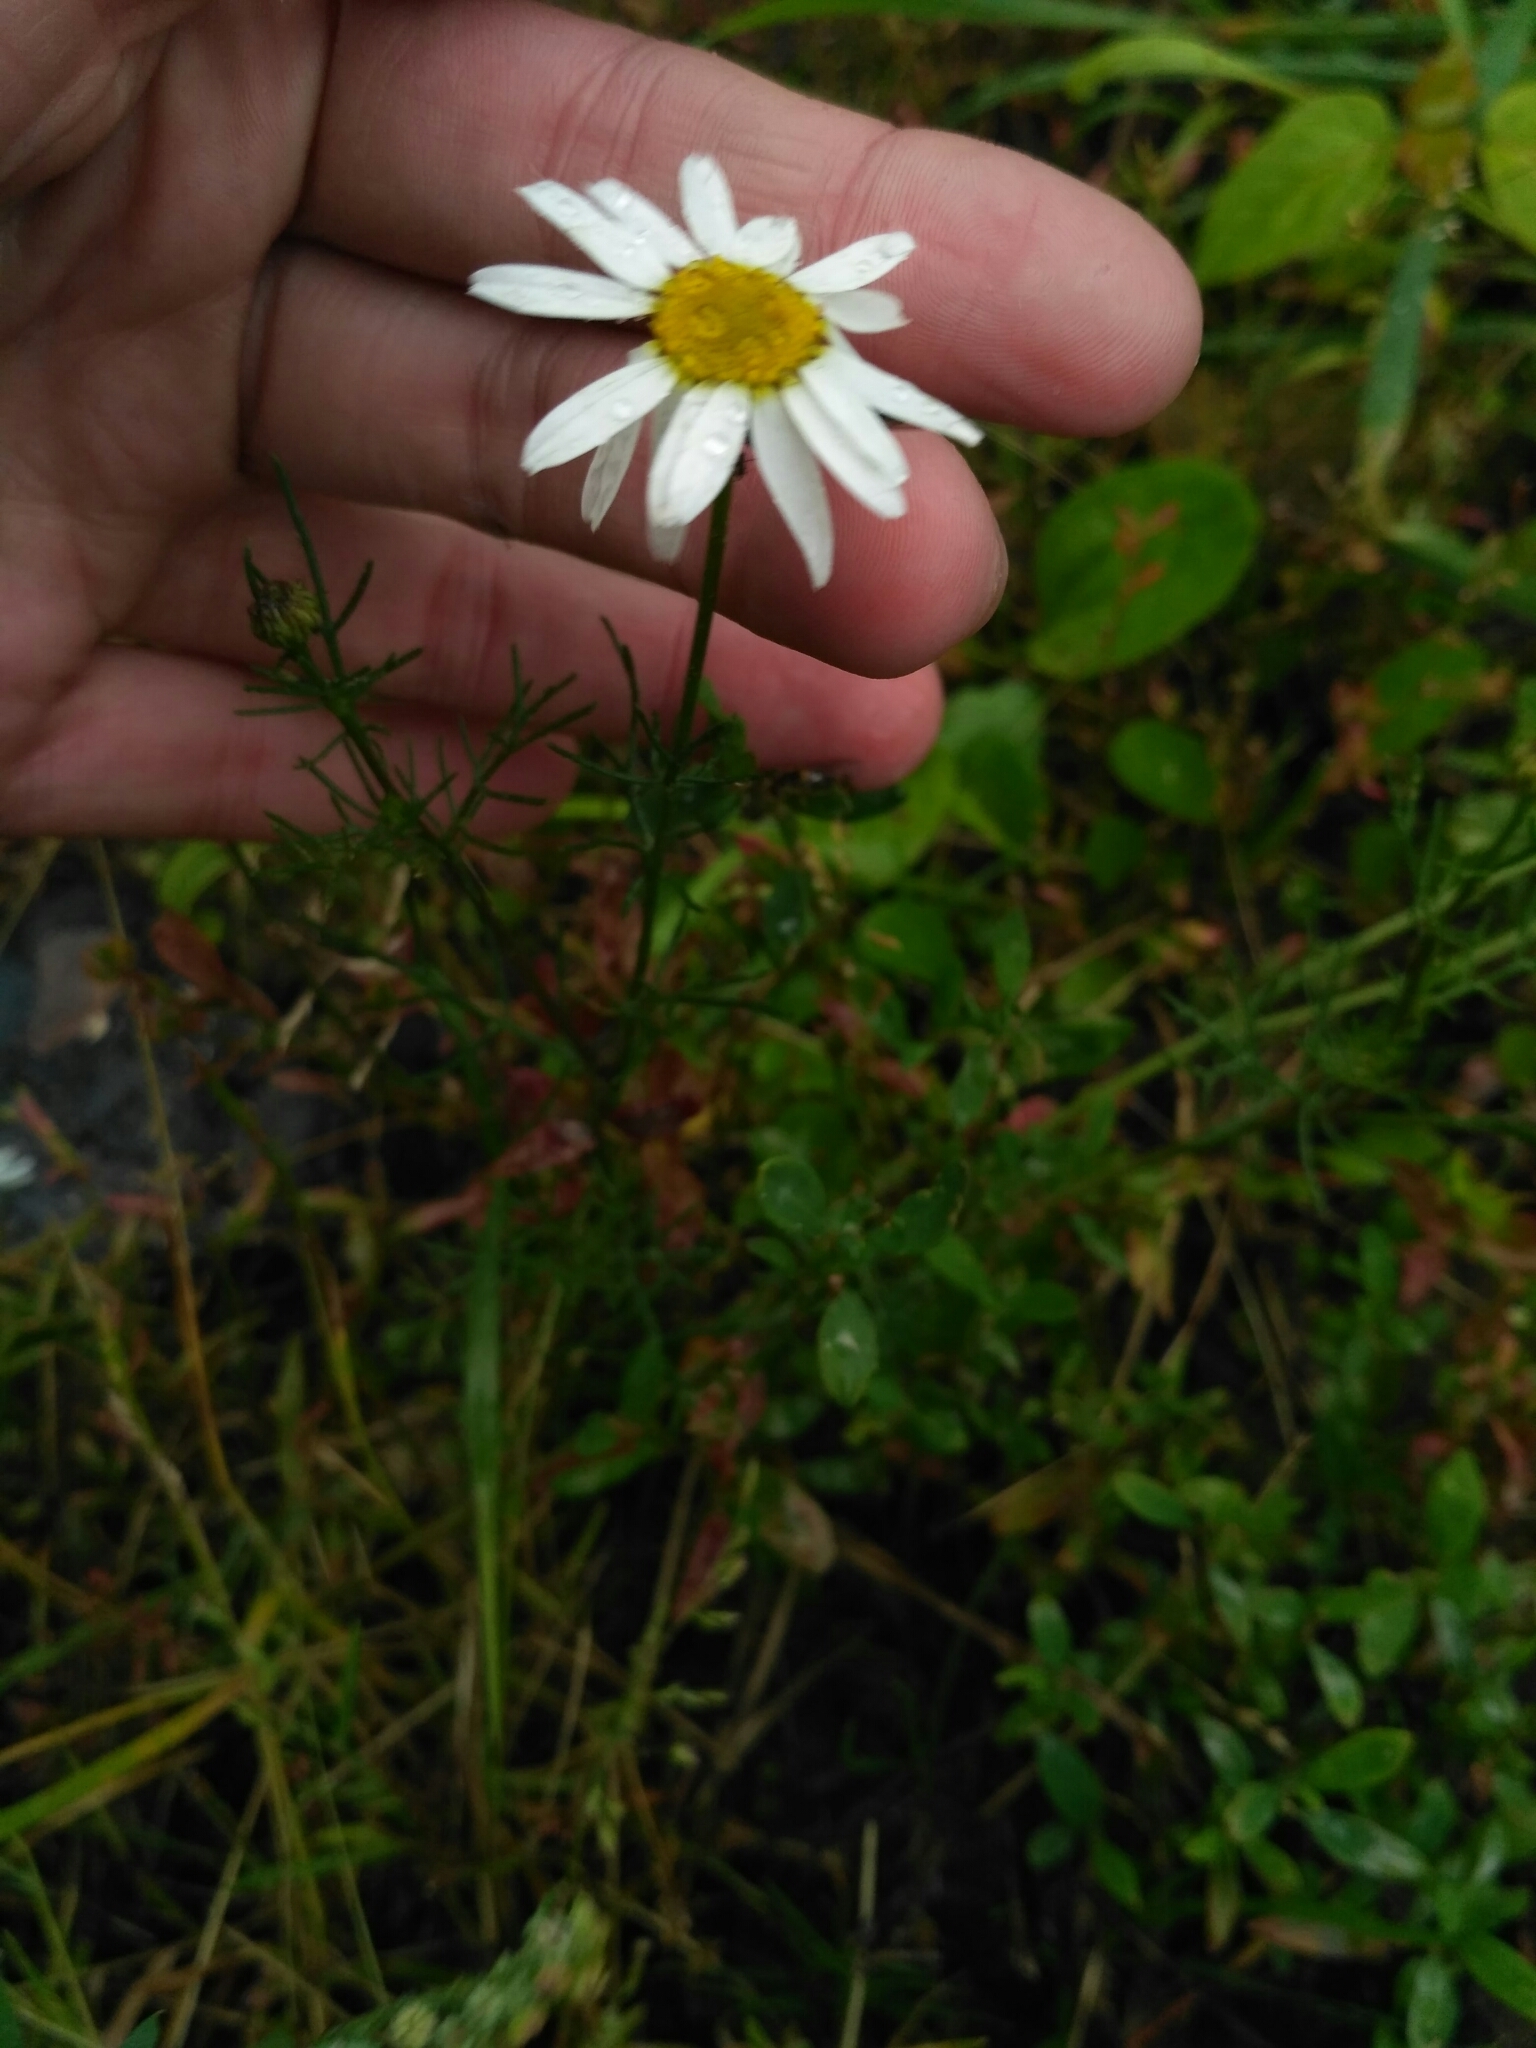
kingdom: Plantae
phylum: Tracheophyta
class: Magnoliopsida
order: Asterales
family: Asteraceae
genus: Tripleurospermum
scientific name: Tripleurospermum inodorum
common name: Scentless mayweed
